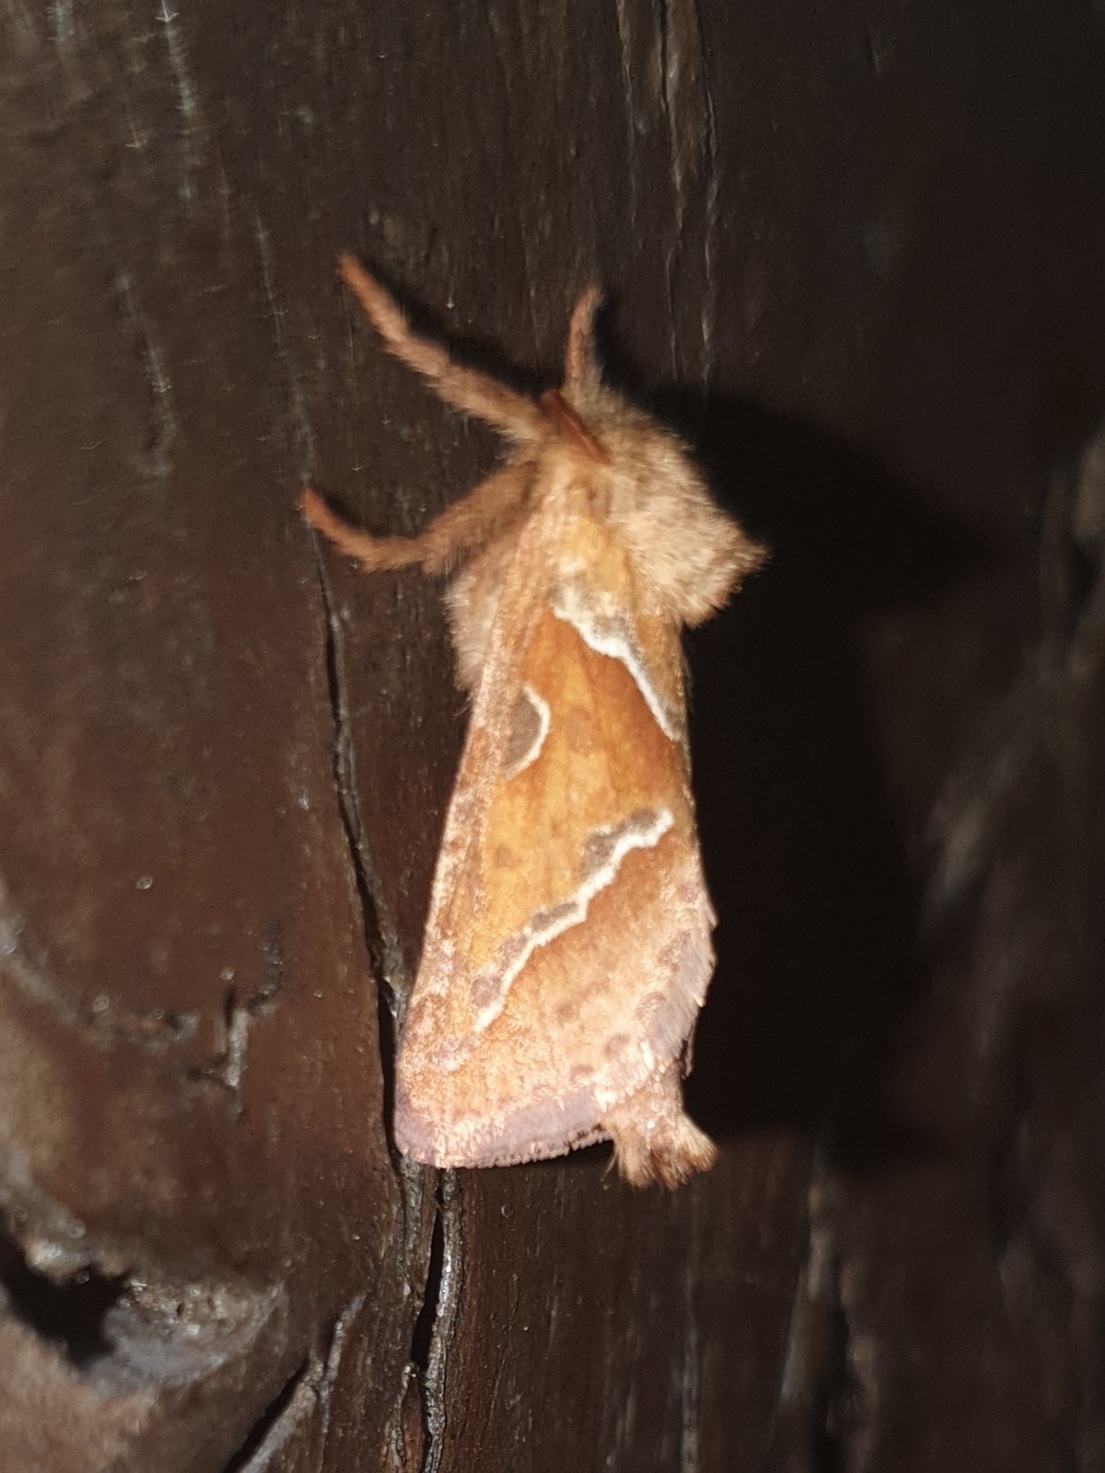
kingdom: Animalia
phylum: Arthropoda
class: Insecta
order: Lepidoptera
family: Hepialidae
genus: Triodia
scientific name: Triodia sylvina
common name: Orange swift
